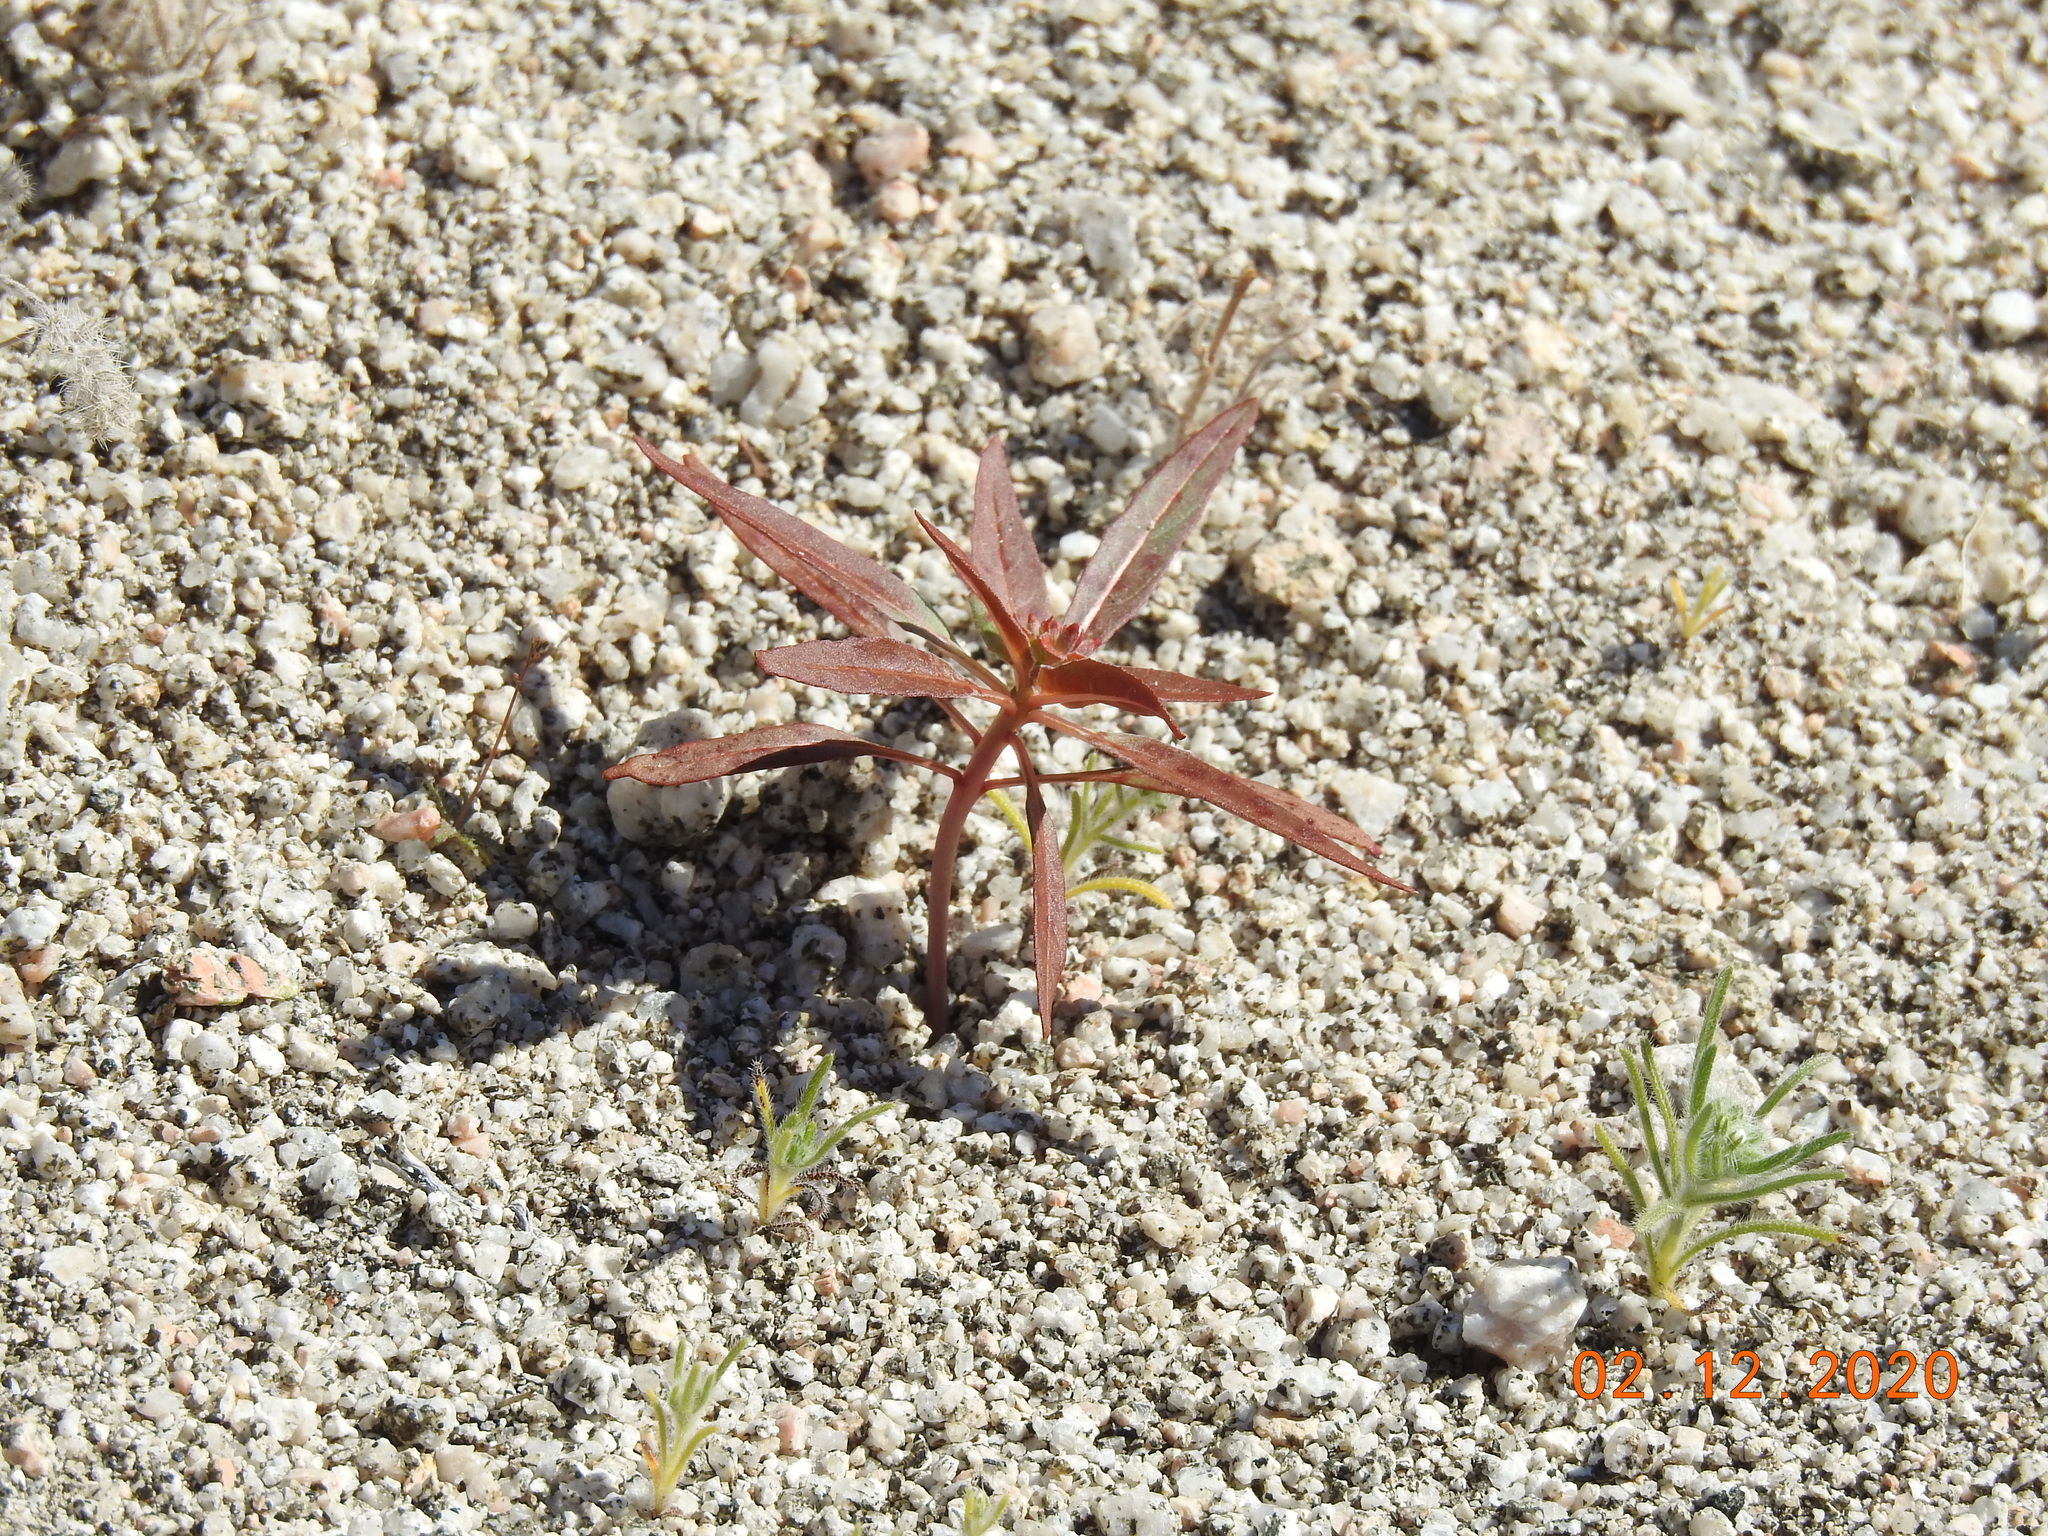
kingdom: Plantae
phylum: Tracheophyta
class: Magnoliopsida
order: Myrtales
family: Onagraceae
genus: Eremothera
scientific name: Eremothera boothii
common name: Booth's evening primrose
